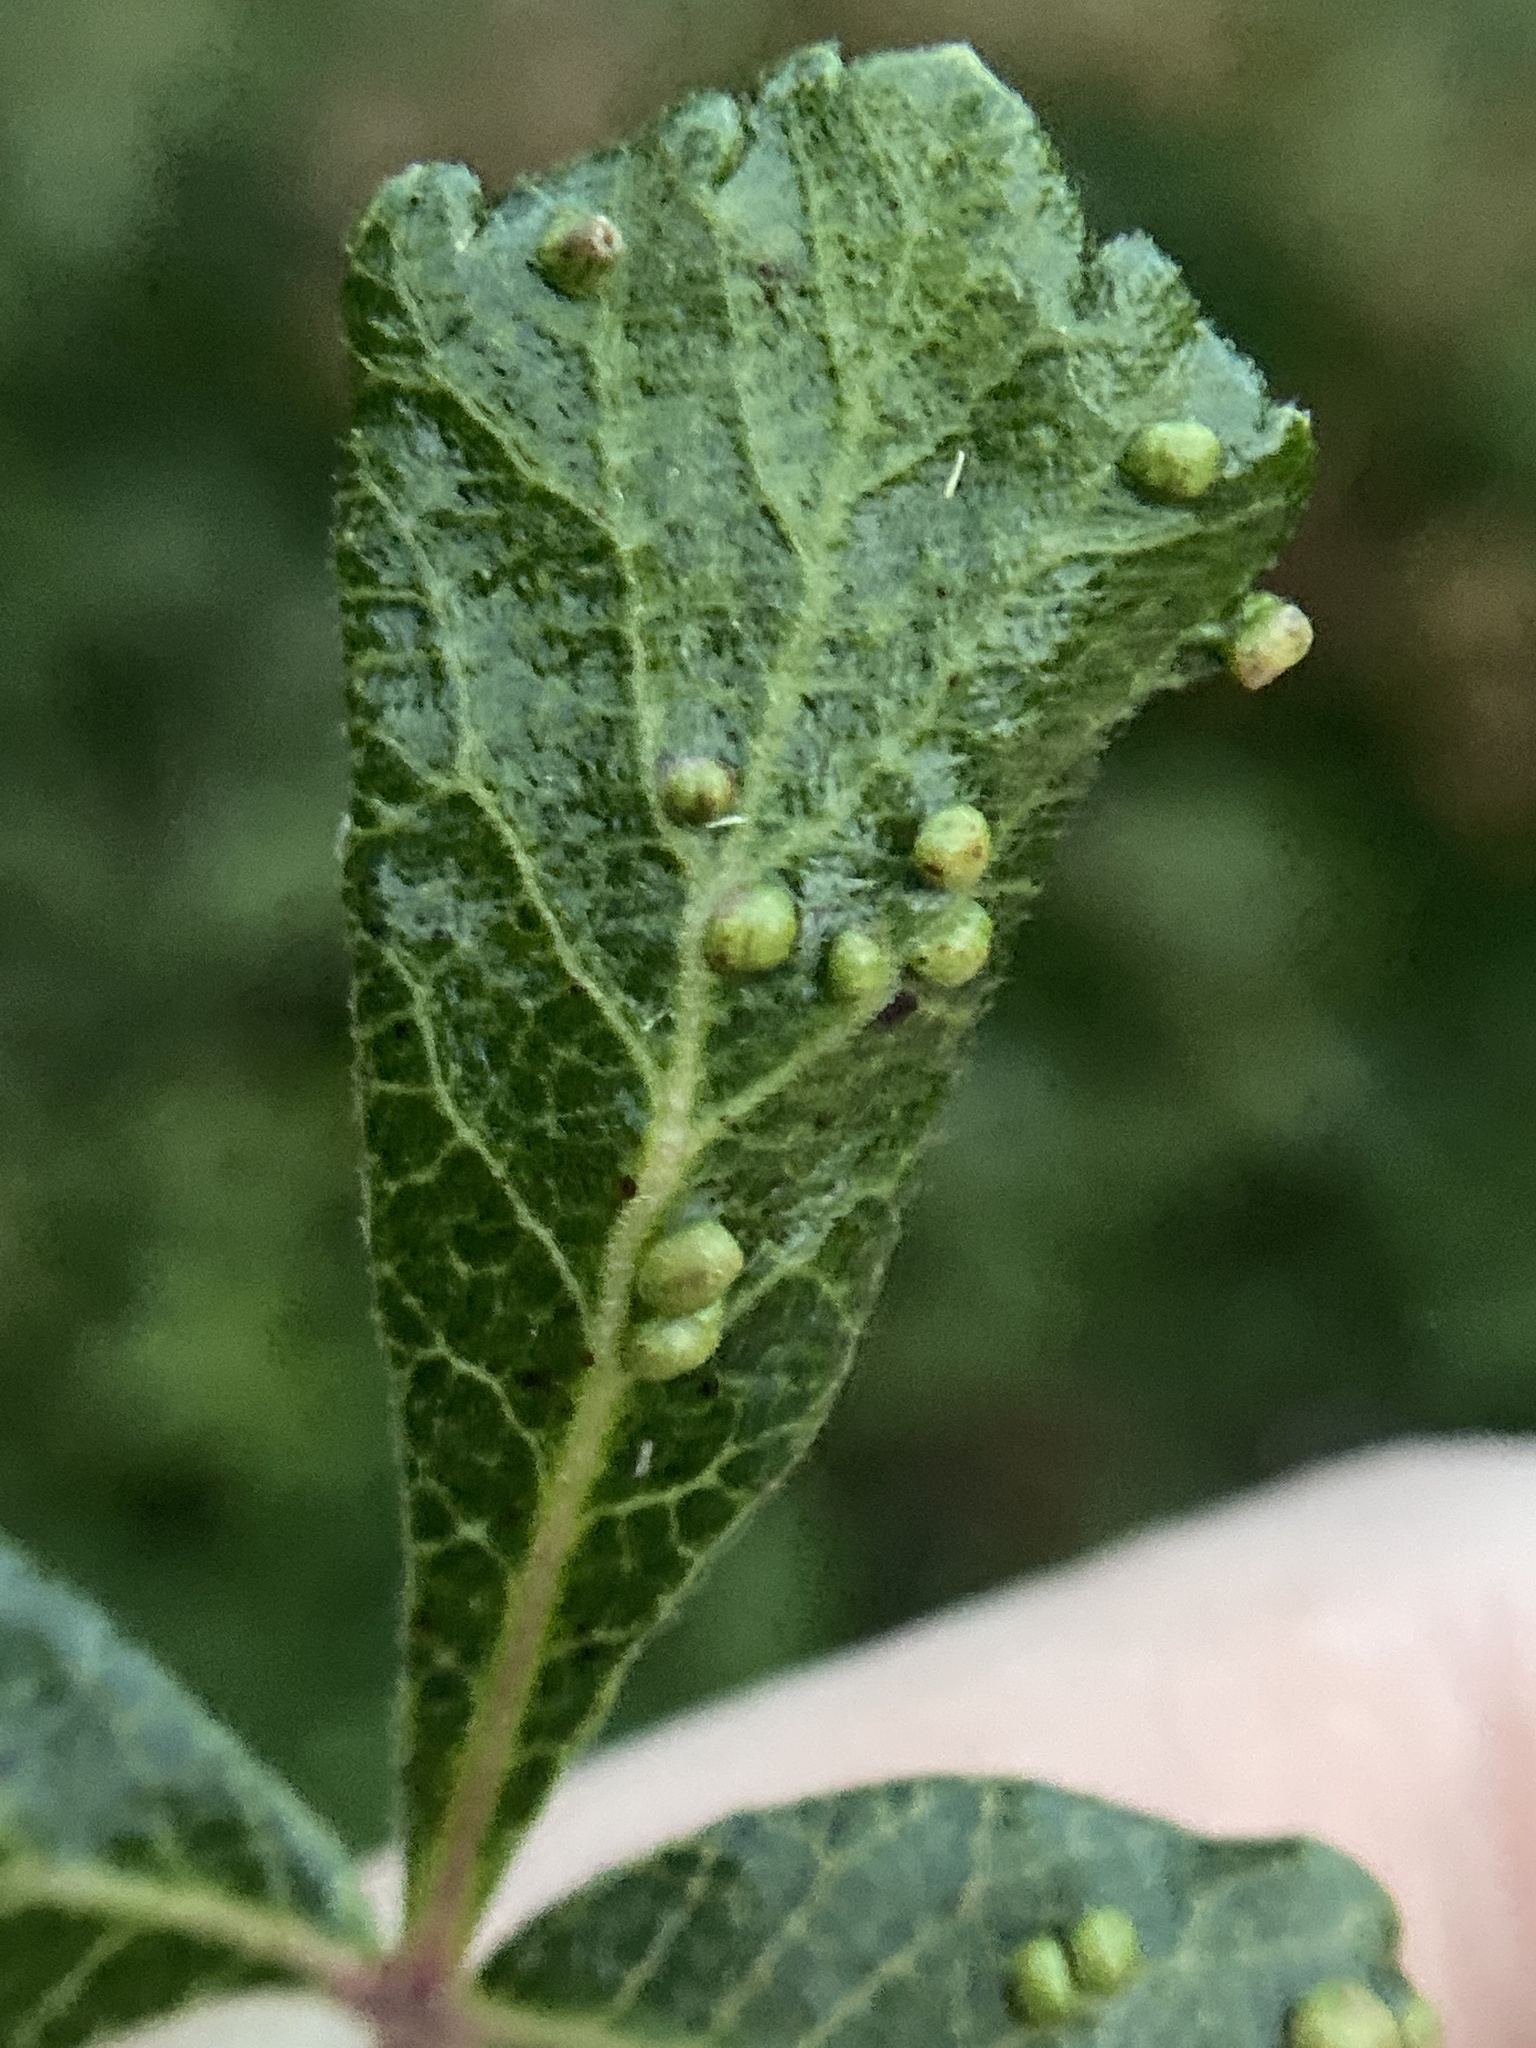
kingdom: Animalia
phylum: Arthropoda
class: Arachnida
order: Trombidiformes
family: Eriophyidae
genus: Aculops
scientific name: Aculops
